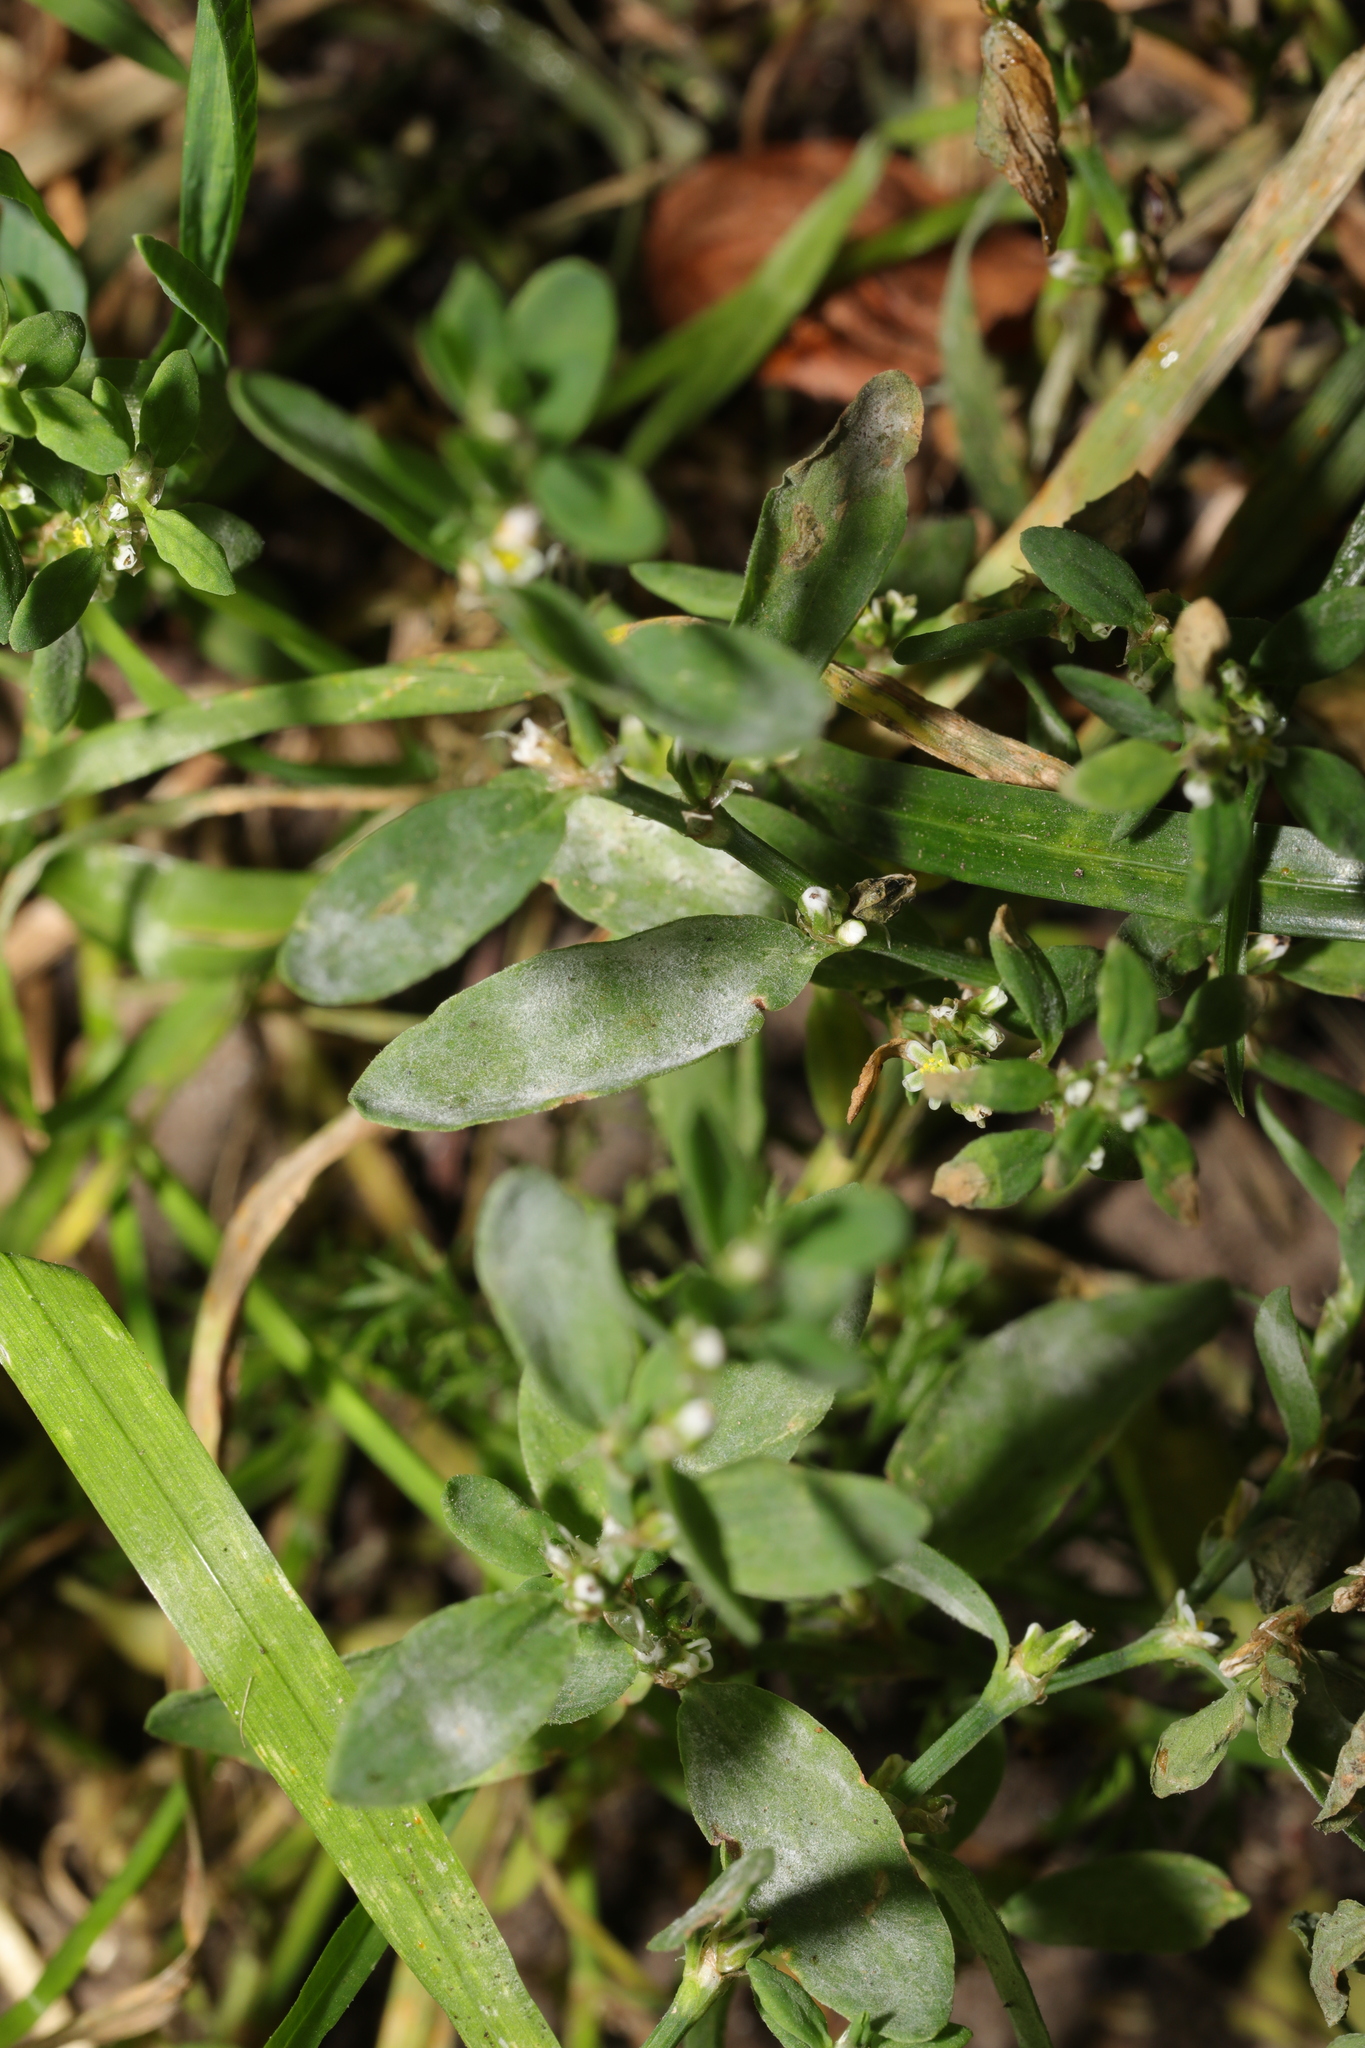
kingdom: Fungi
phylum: Ascomycota
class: Leotiomycetes
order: Helotiales
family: Erysiphaceae
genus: Erysiphe
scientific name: Erysiphe polygoni
